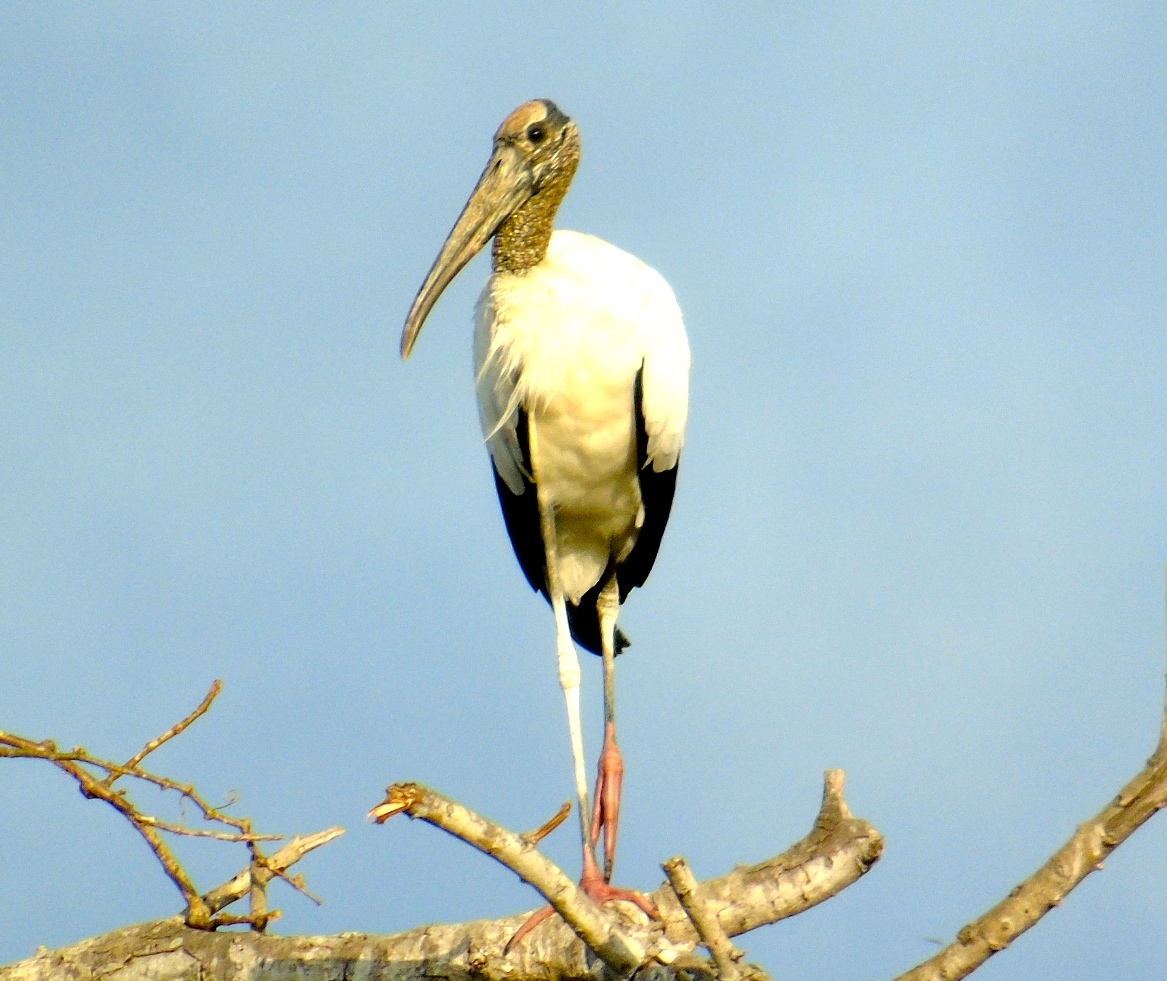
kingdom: Animalia
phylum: Chordata
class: Aves
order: Ciconiiformes
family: Ciconiidae
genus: Mycteria
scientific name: Mycteria americana
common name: Wood stork
